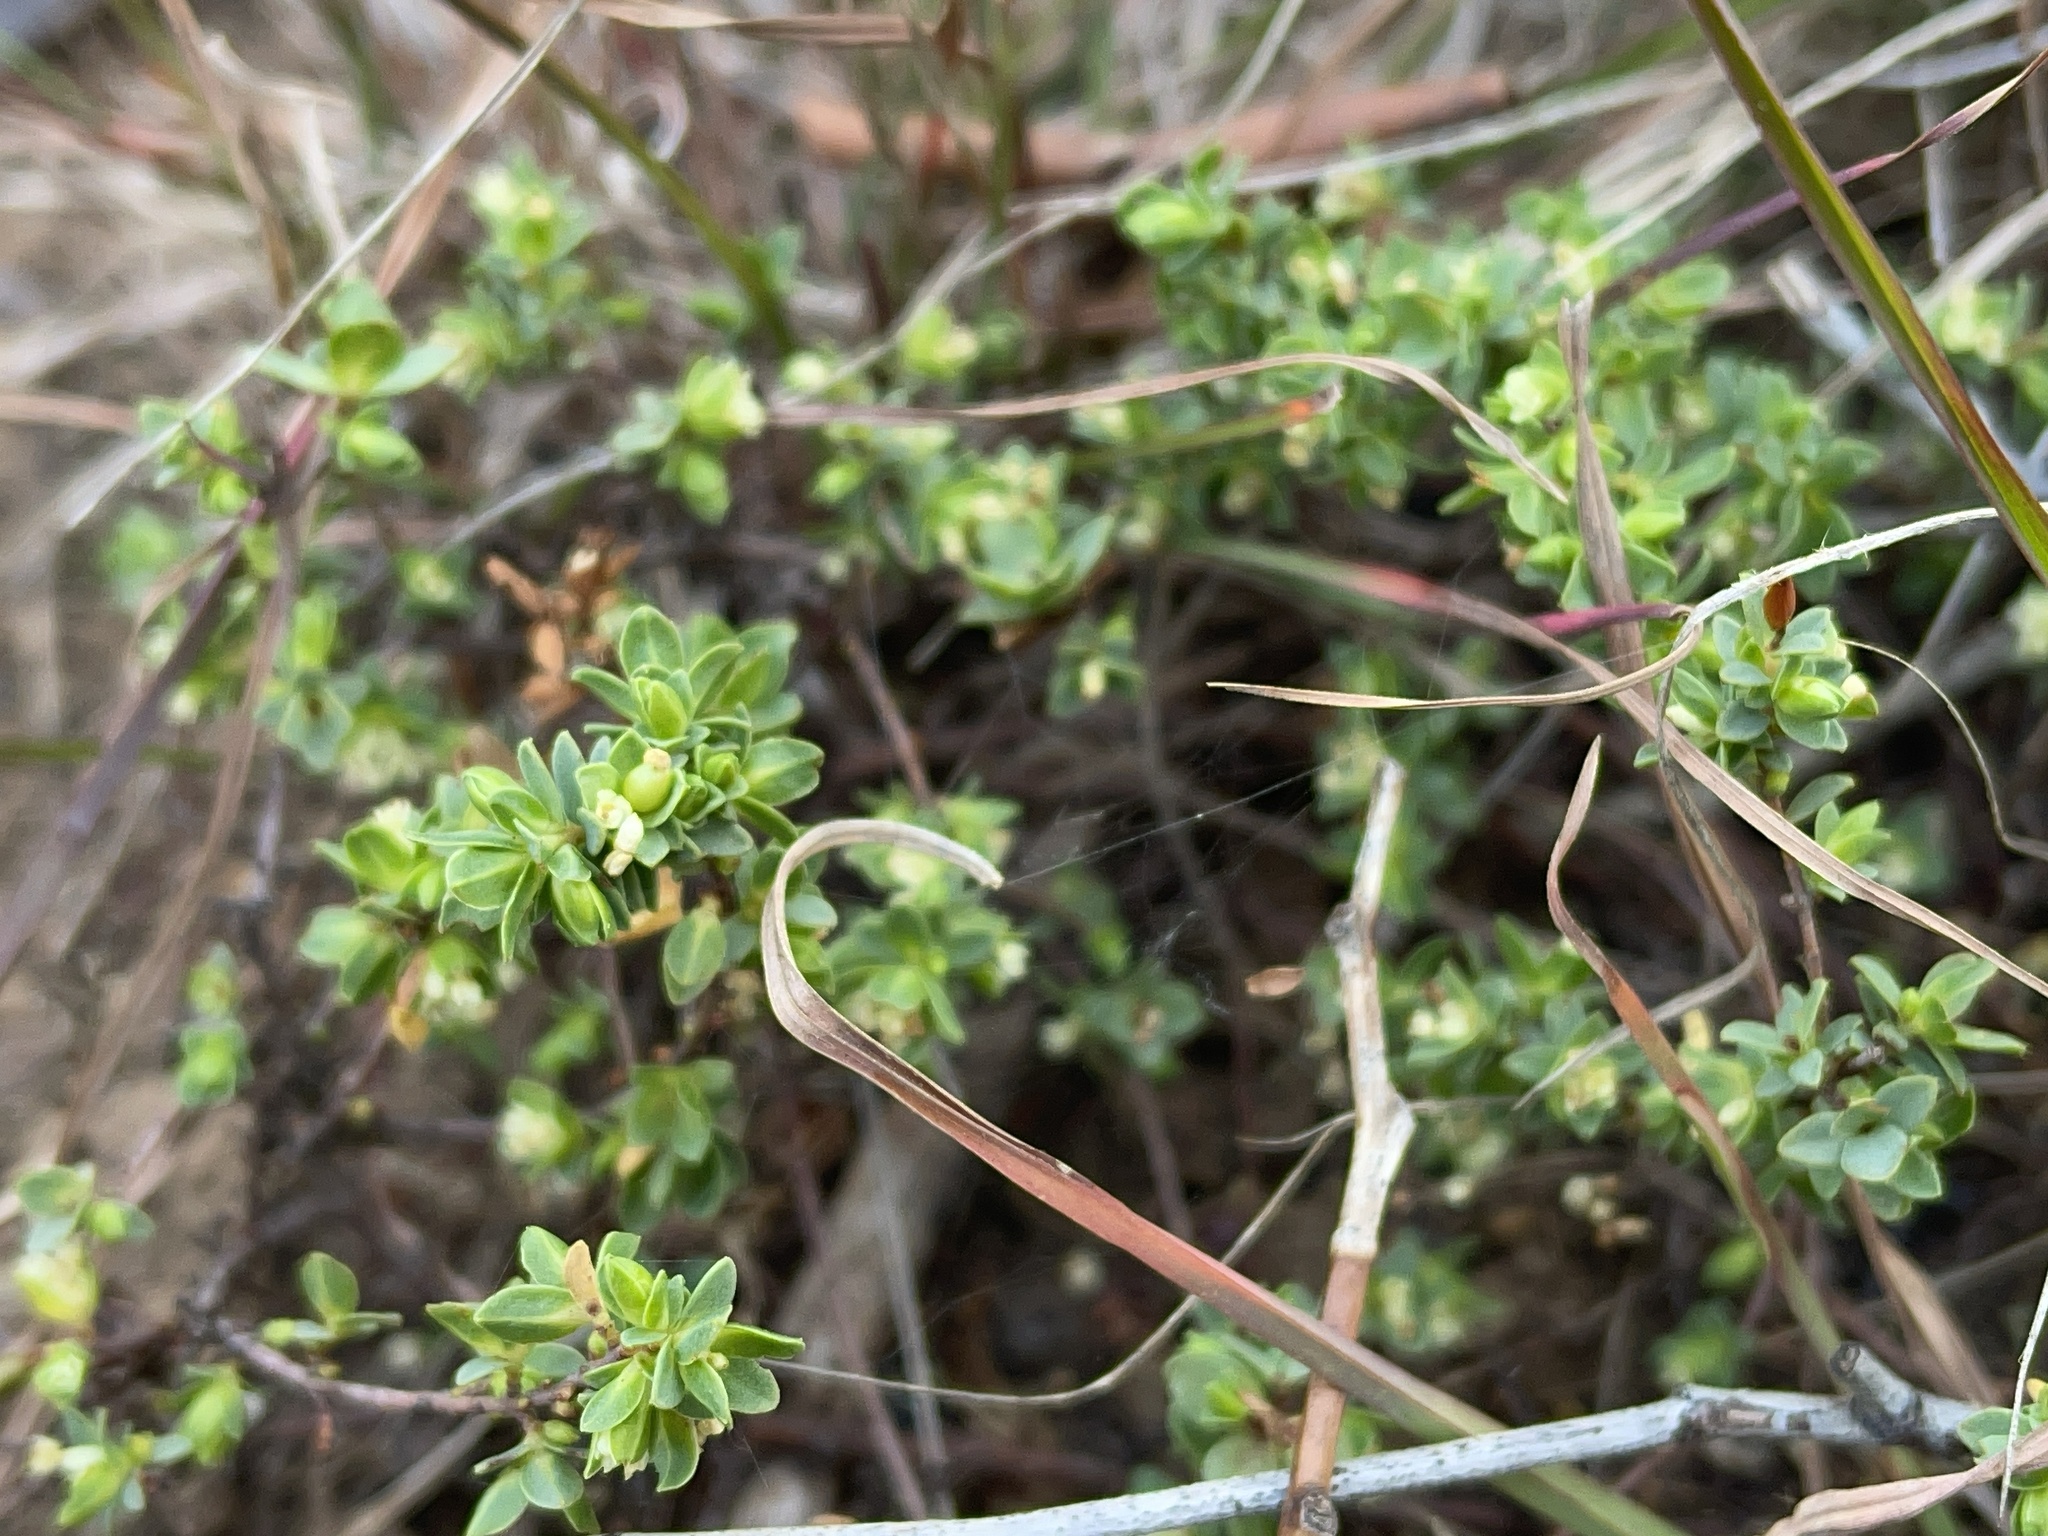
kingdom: Plantae
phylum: Tracheophyta
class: Magnoliopsida
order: Malvales
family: Thymelaeaceae
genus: Pimelea
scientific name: Pimelea spinescens
